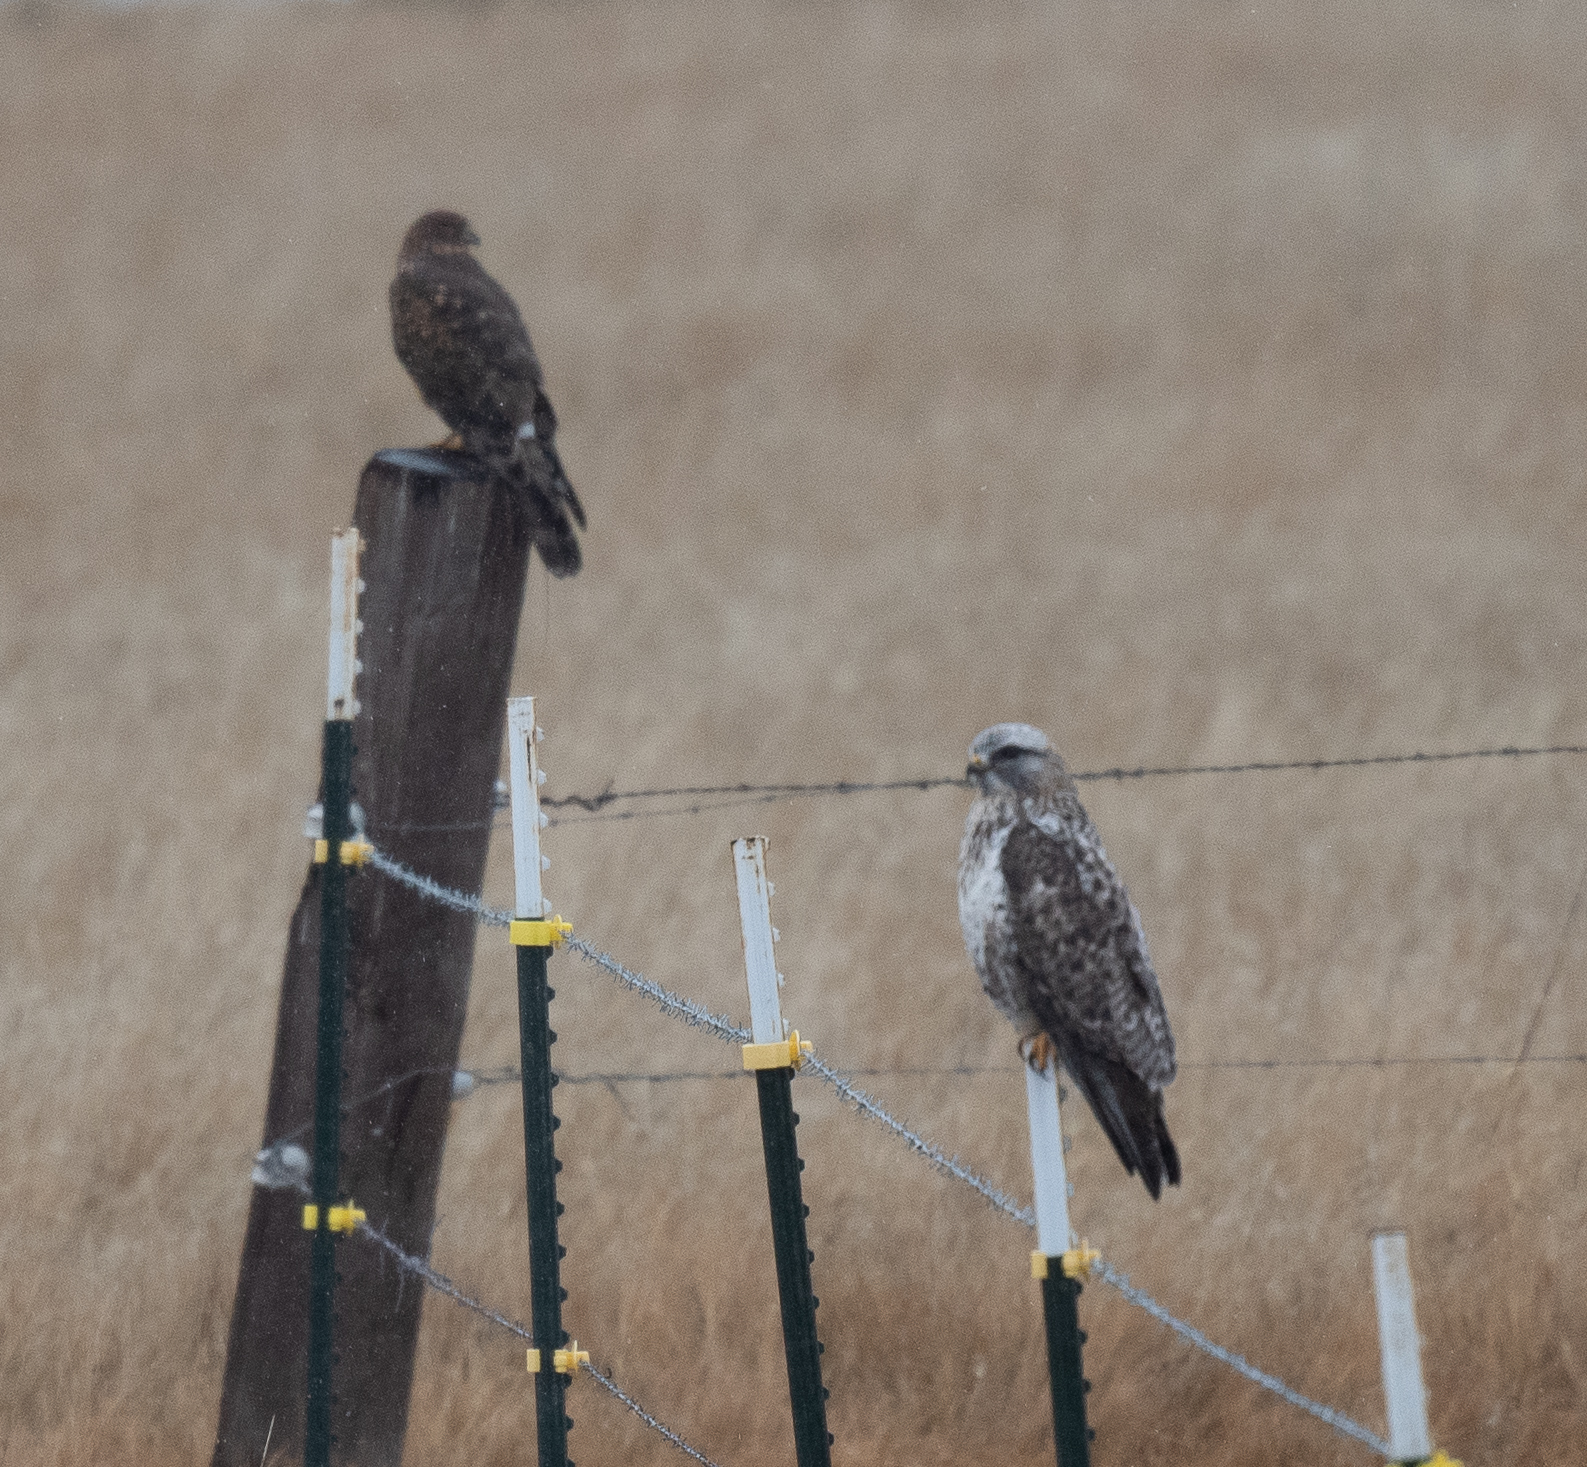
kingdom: Animalia
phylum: Chordata
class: Aves
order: Accipitriformes
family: Accipitridae
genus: Buteo
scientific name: Buteo lagopus
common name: Rough-legged buzzard
